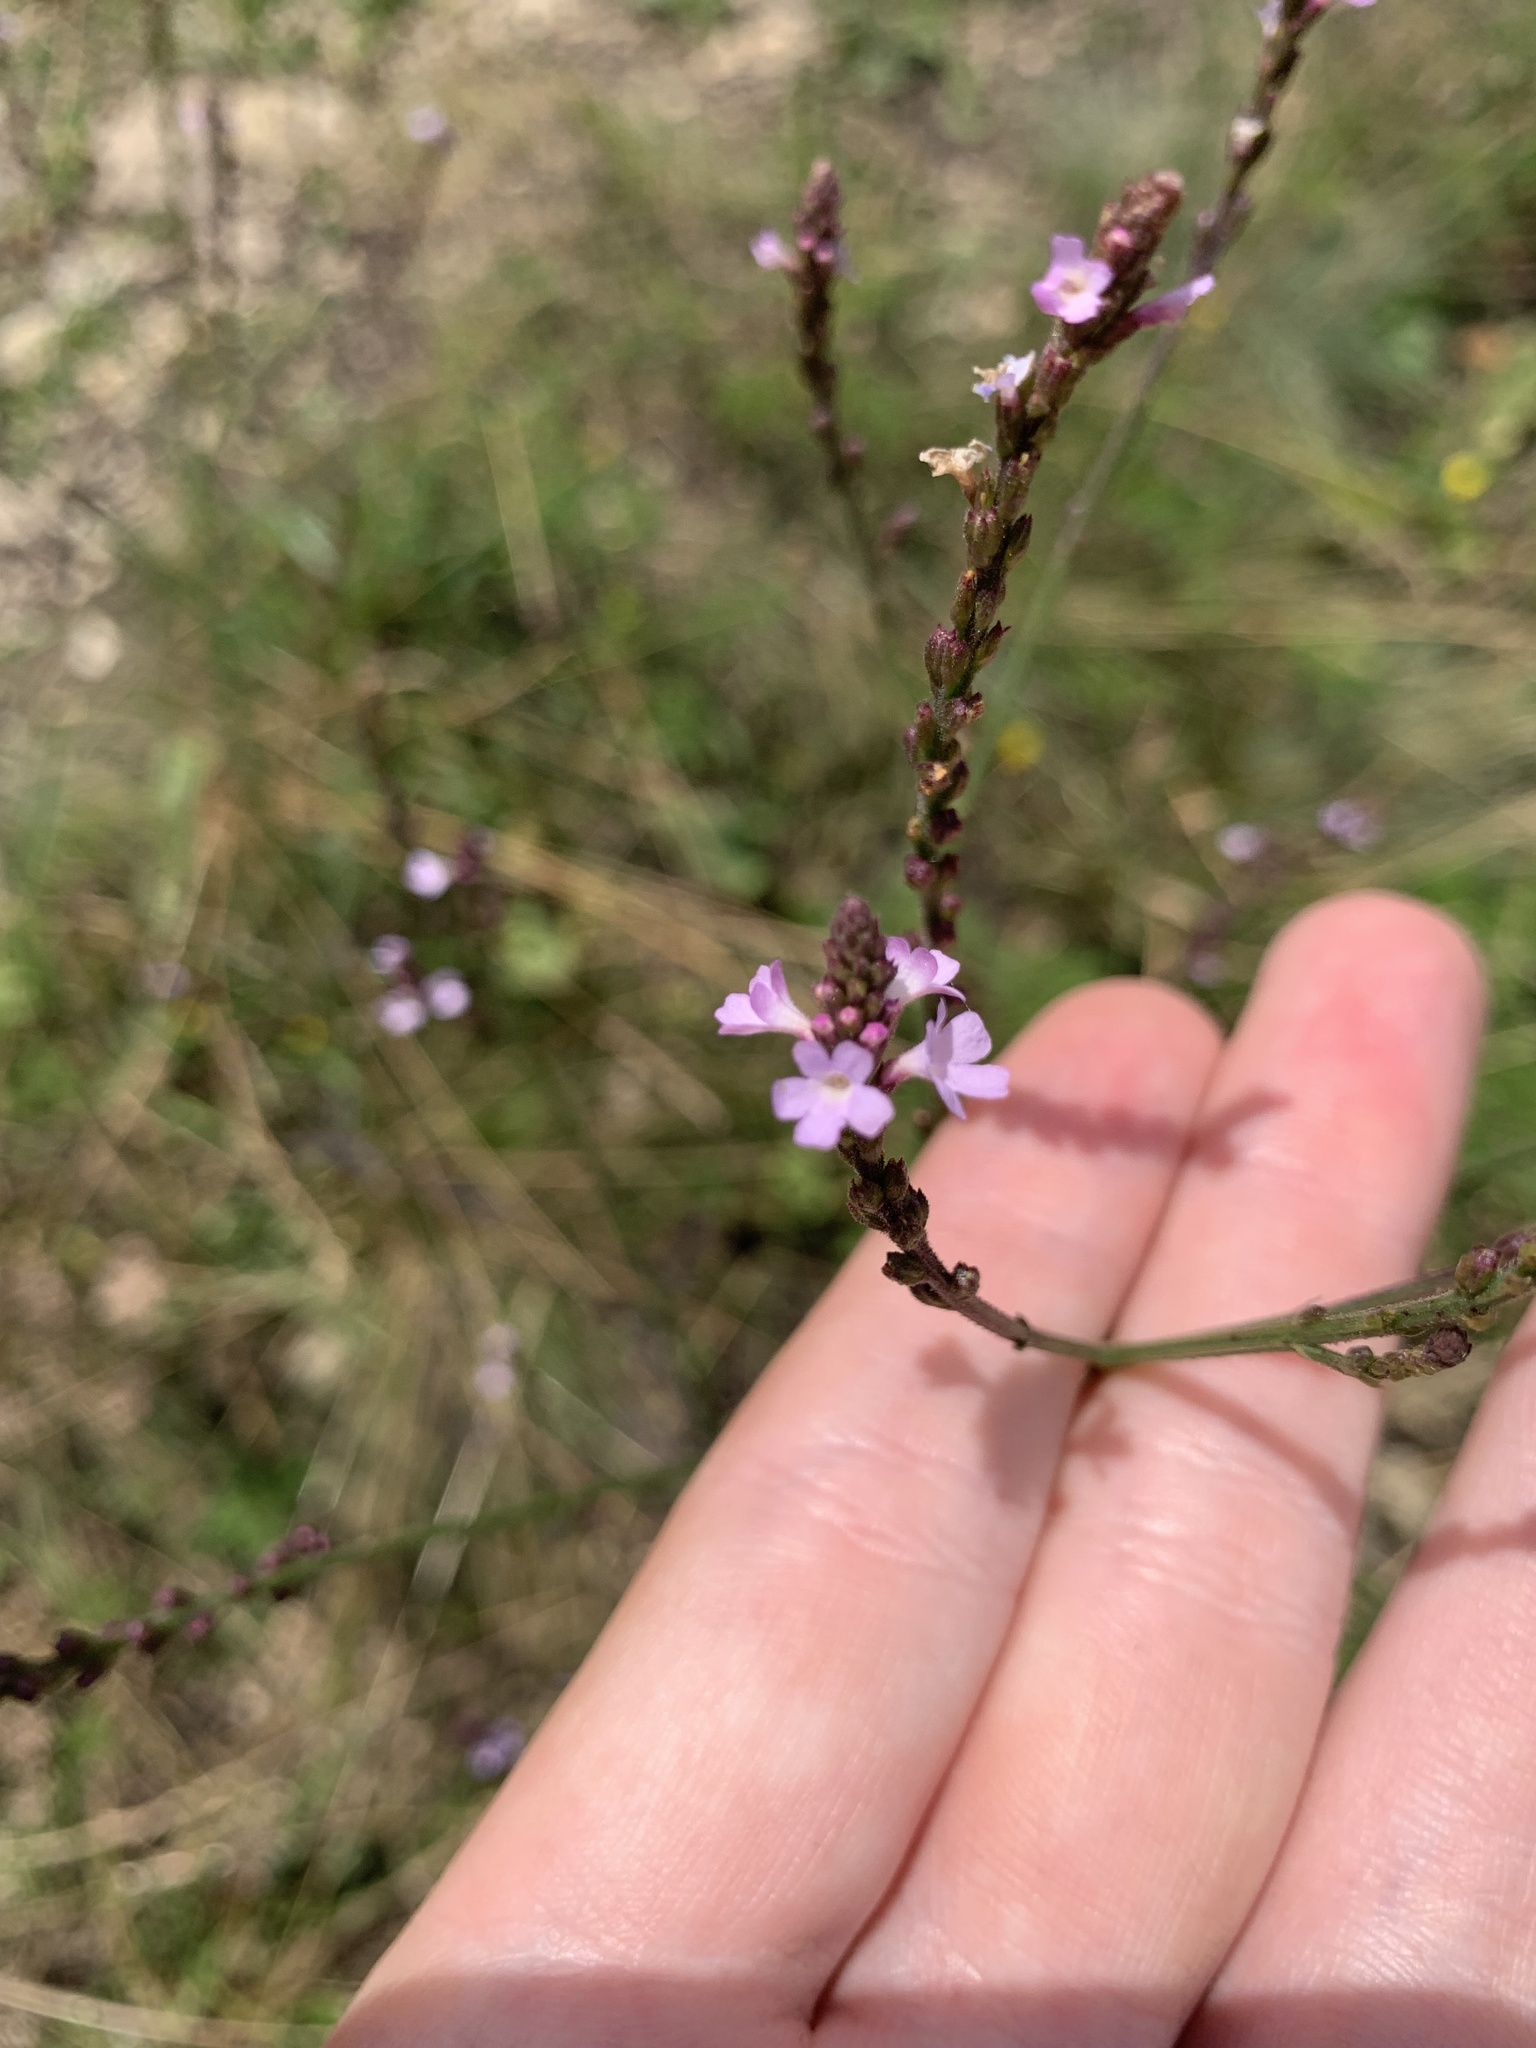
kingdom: Plantae
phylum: Tracheophyta
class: Magnoliopsida
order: Lamiales
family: Verbenaceae
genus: Verbena
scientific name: Verbena officinalis
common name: Vervain
